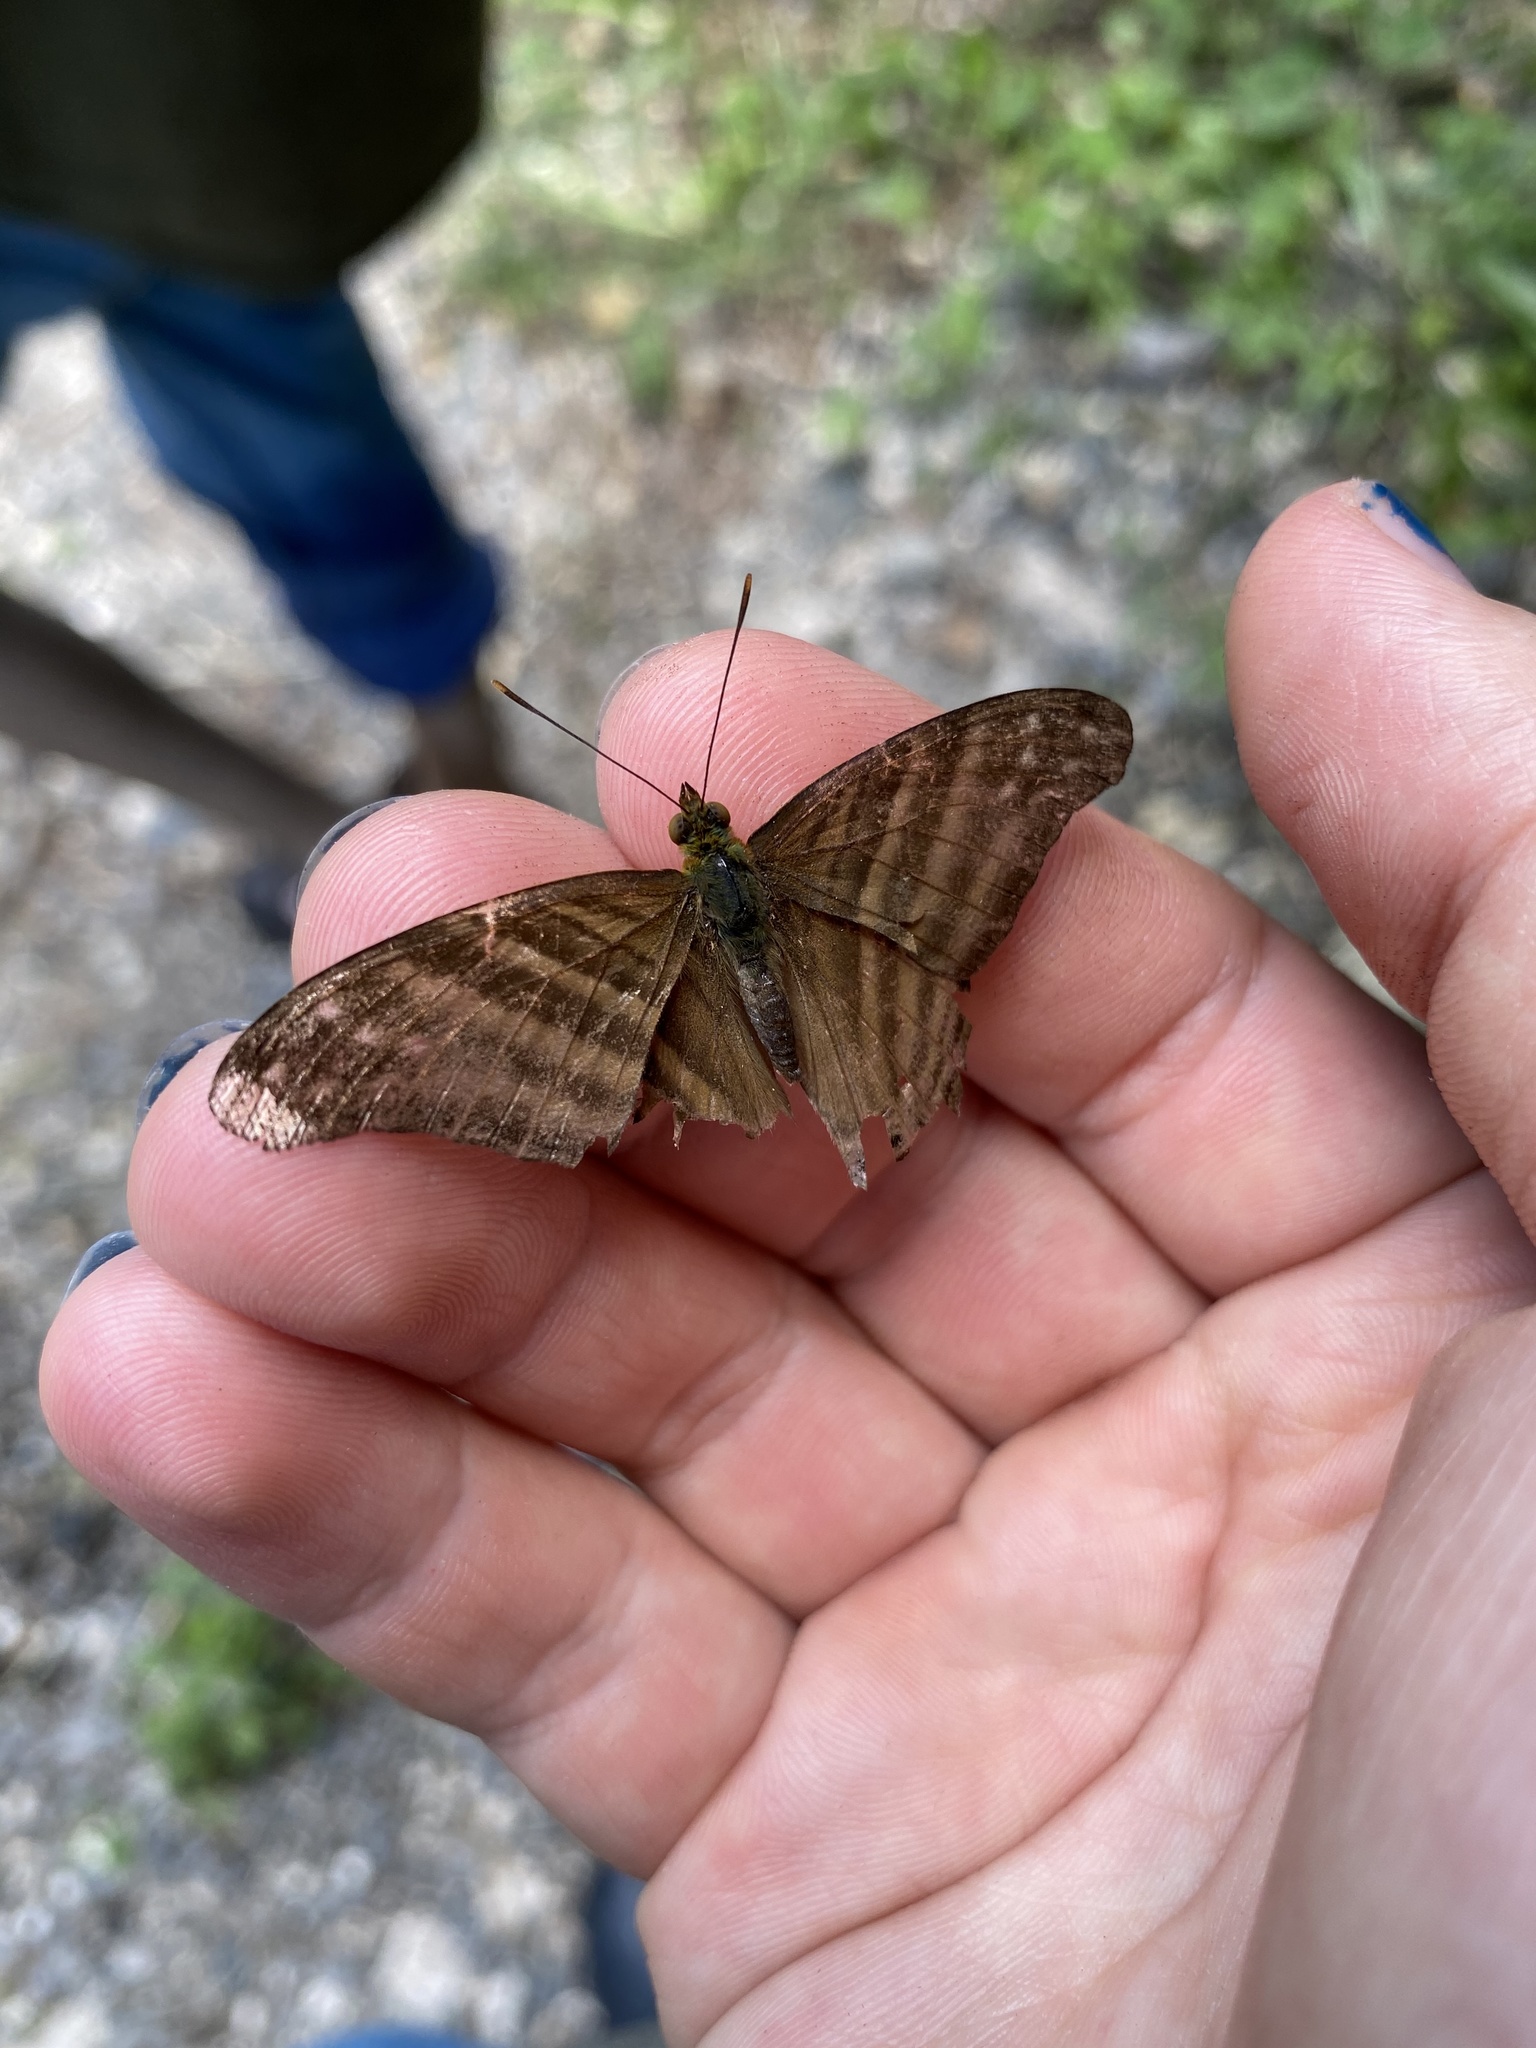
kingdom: Animalia
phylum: Arthropoda
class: Insecta
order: Lepidoptera
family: Nymphalidae
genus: Marpesia
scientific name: Marpesia chiron
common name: Many-banded daggerwing
